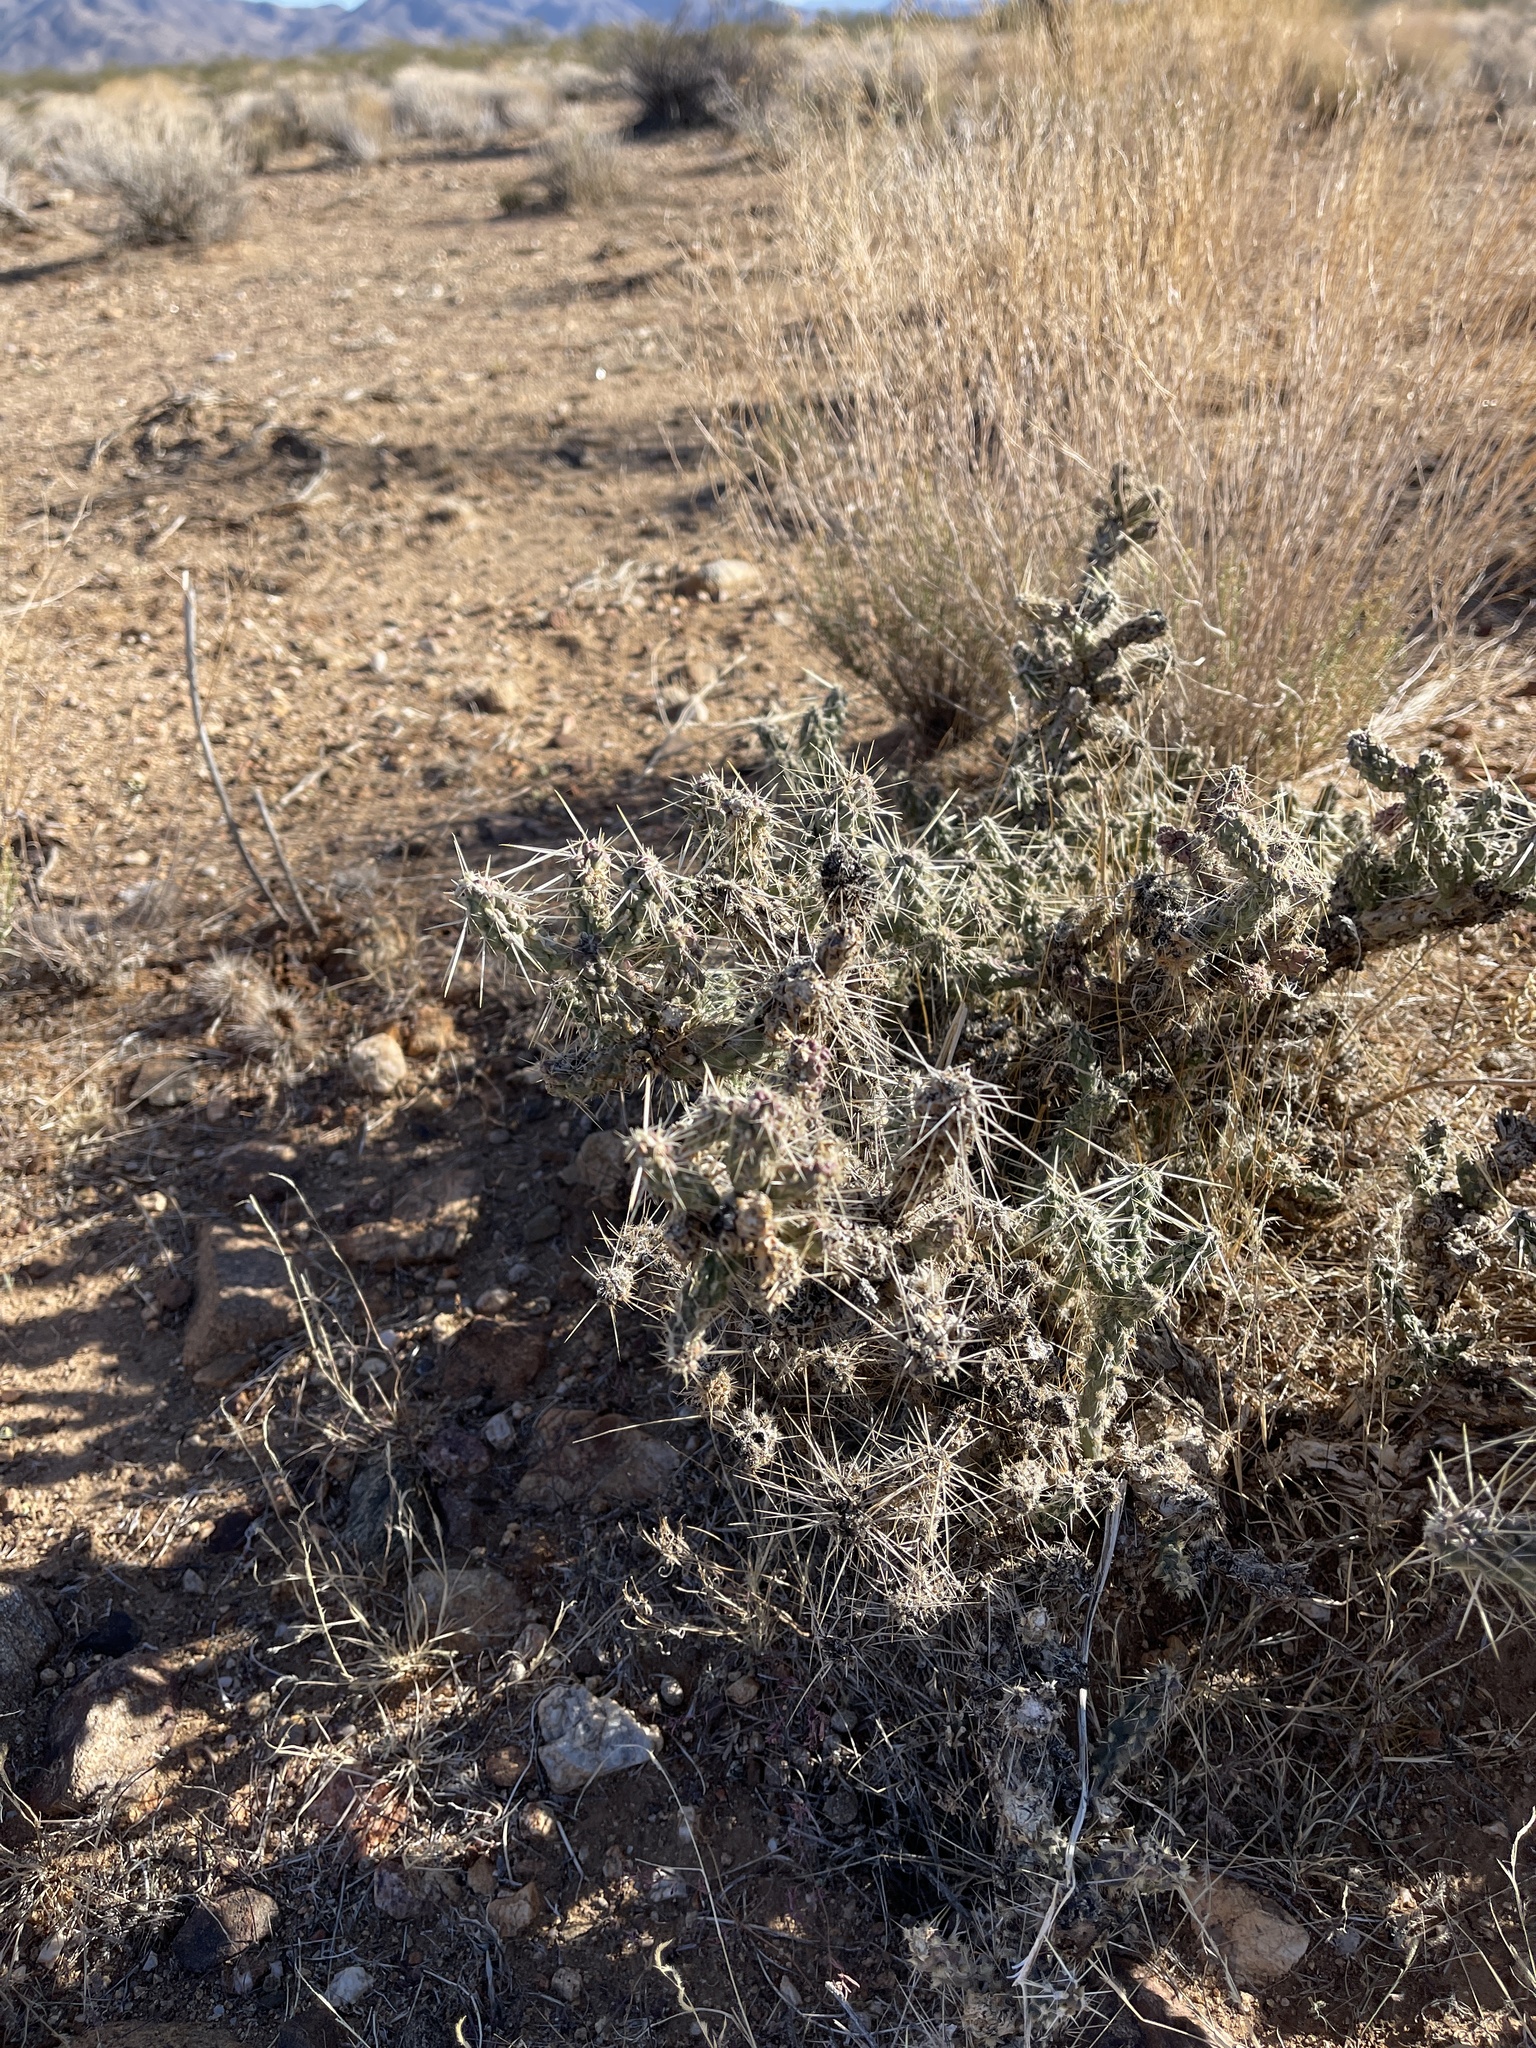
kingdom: Plantae
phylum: Tracheophyta
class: Magnoliopsida
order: Caryophyllales
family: Cactaceae
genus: Cylindropuntia
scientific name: Cylindropuntia whipplei
